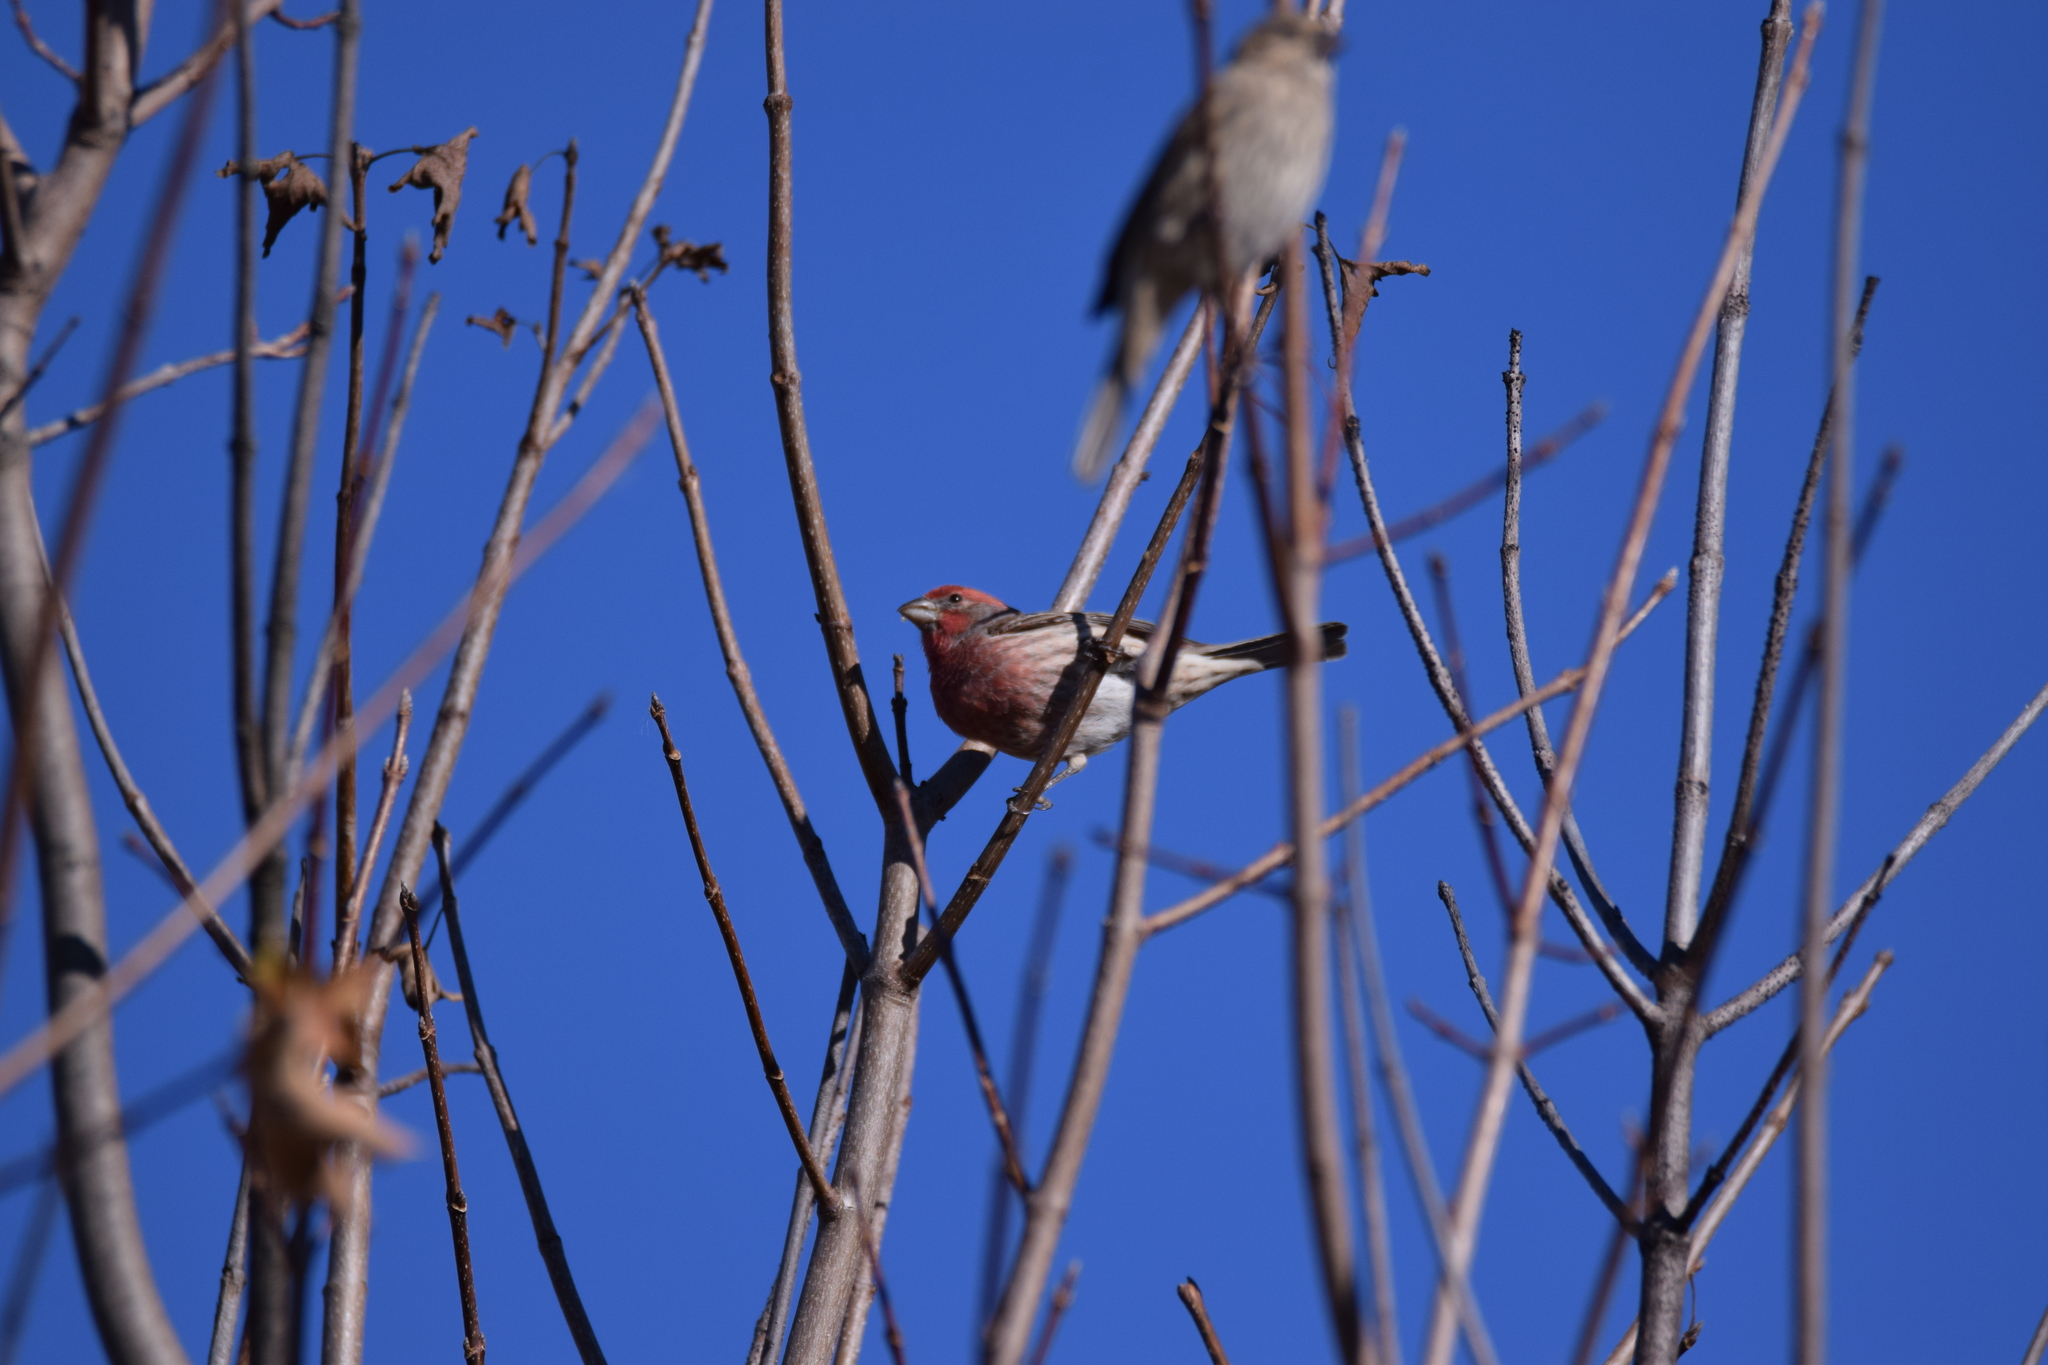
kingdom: Animalia
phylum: Chordata
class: Aves
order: Passeriformes
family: Fringillidae
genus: Haemorhous
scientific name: Haemorhous mexicanus
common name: House finch
